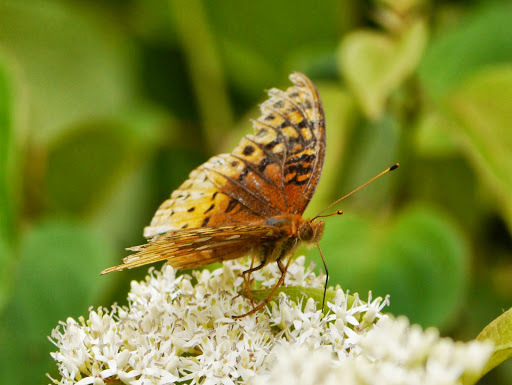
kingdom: Animalia
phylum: Arthropoda
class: Insecta
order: Lepidoptera
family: Nymphalidae
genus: Speyeria
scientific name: Speyeria cybele
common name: Great spangled fritillary
